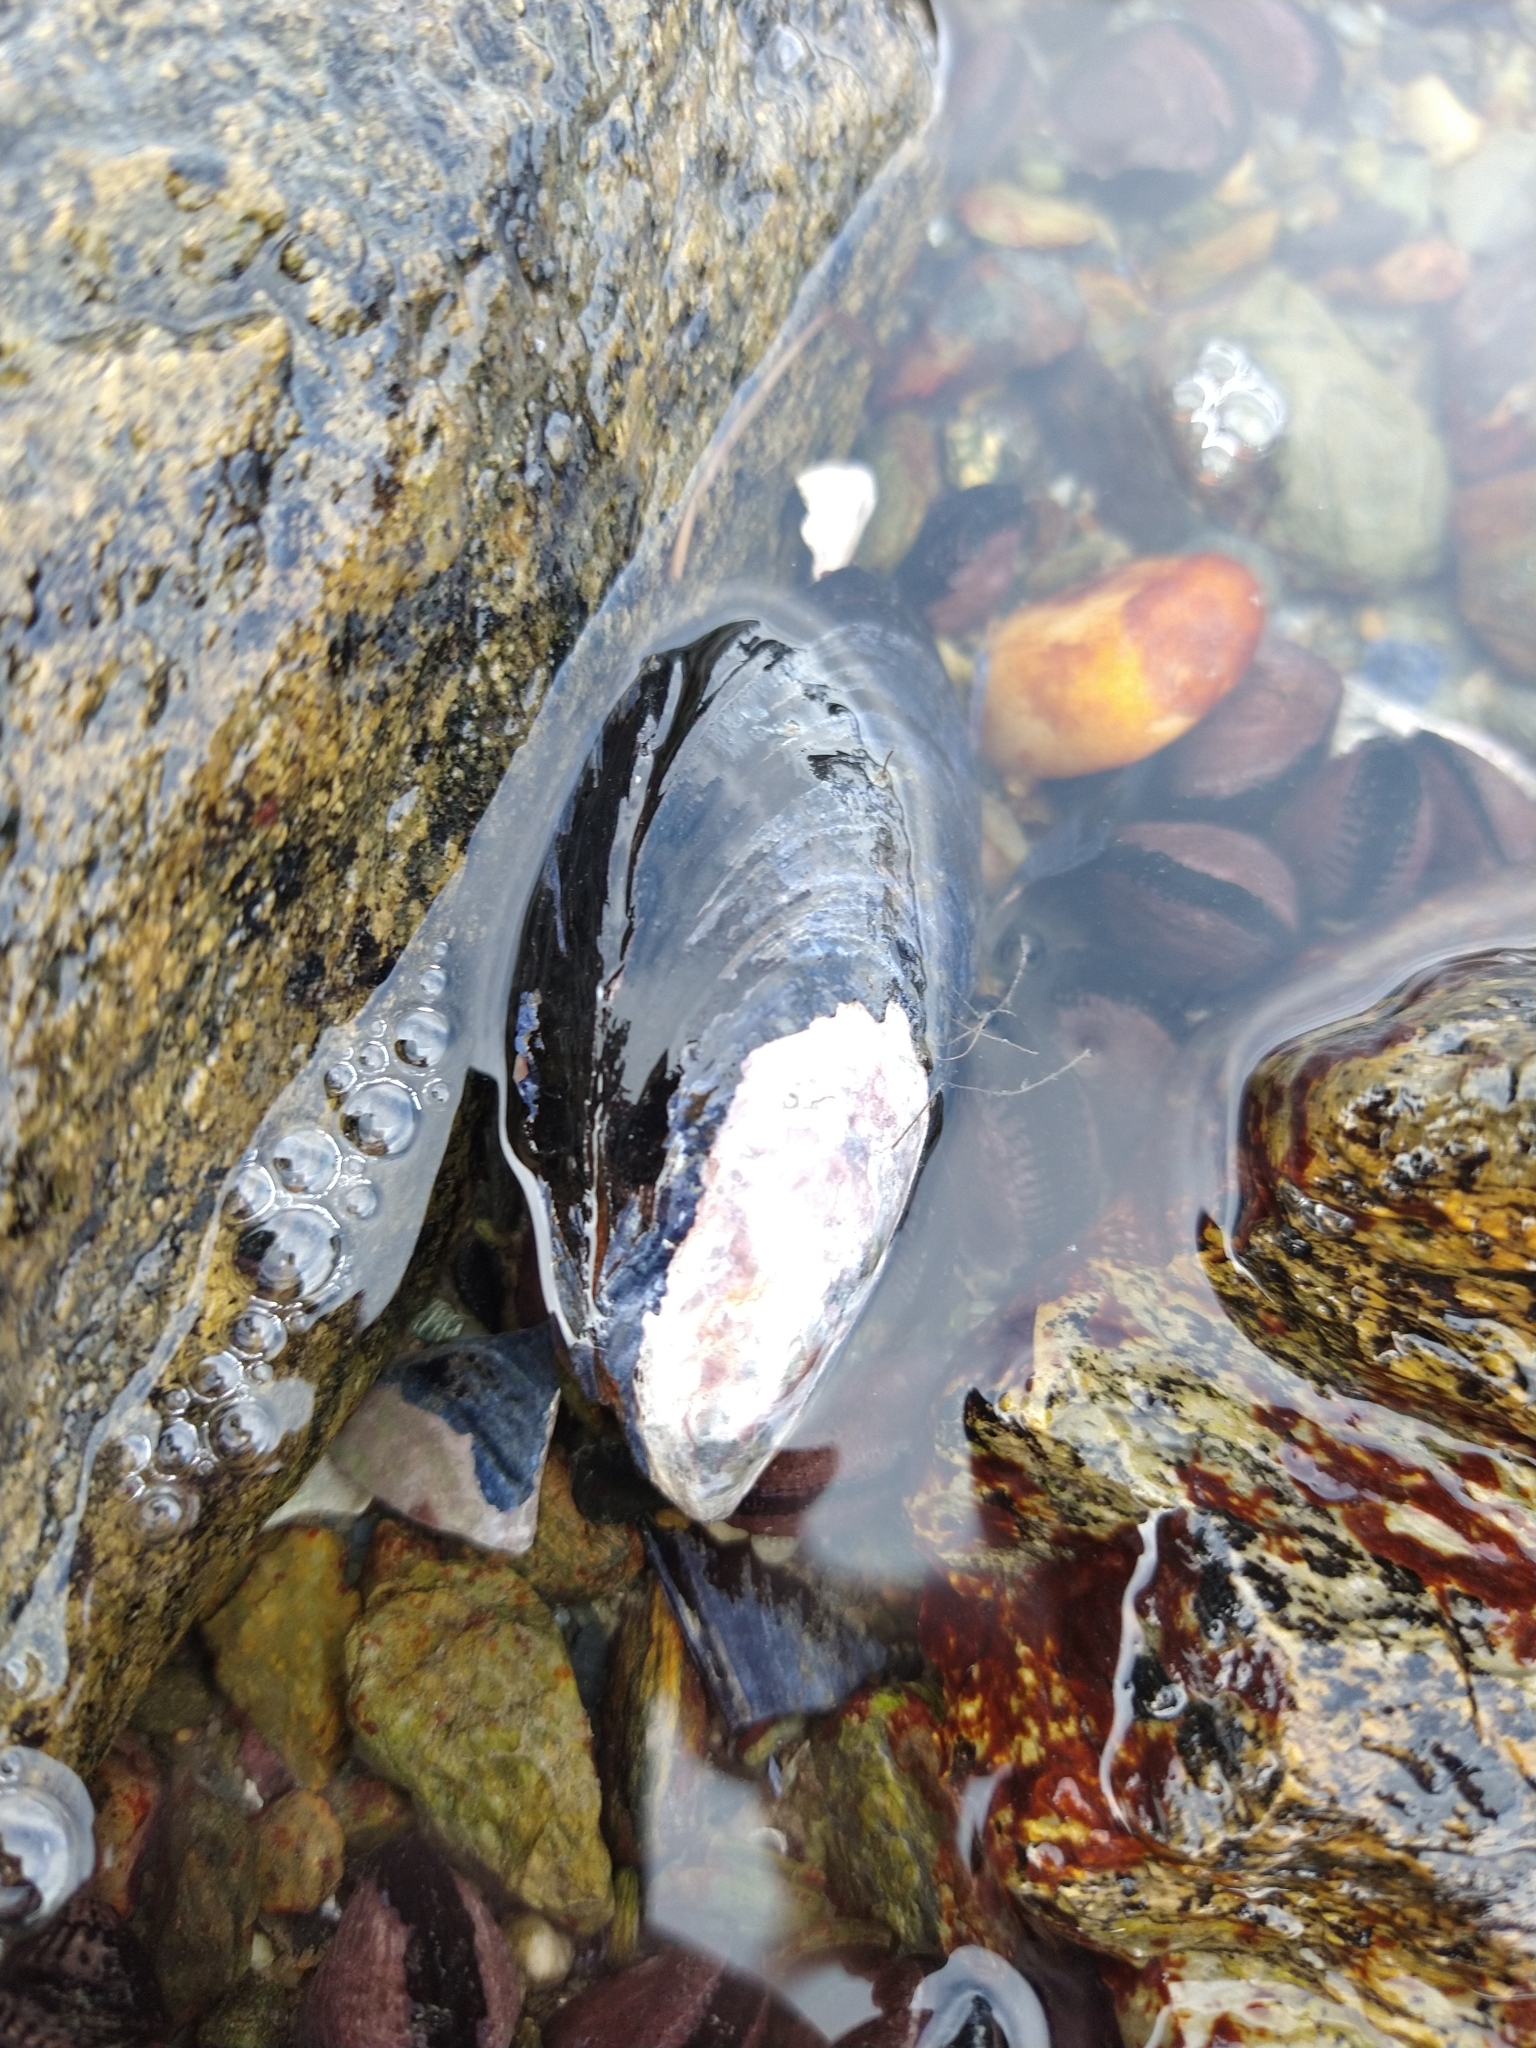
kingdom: Animalia
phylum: Mollusca
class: Bivalvia
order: Mytilida
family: Mytilidae
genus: Mytilus
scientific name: Mytilus chilensis
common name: Chilean mussel
